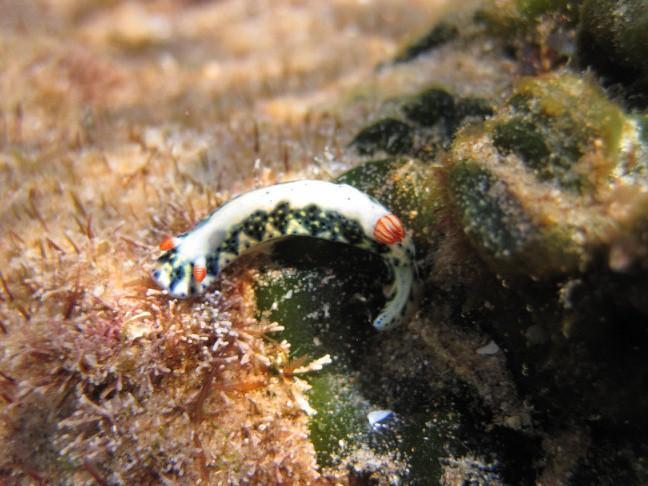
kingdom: Animalia
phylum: Mollusca
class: Gastropoda
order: Nudibranchia
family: Chromodorididae
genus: Hypselodoris
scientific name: Hypselodoris infucata
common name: Mottled dorid
